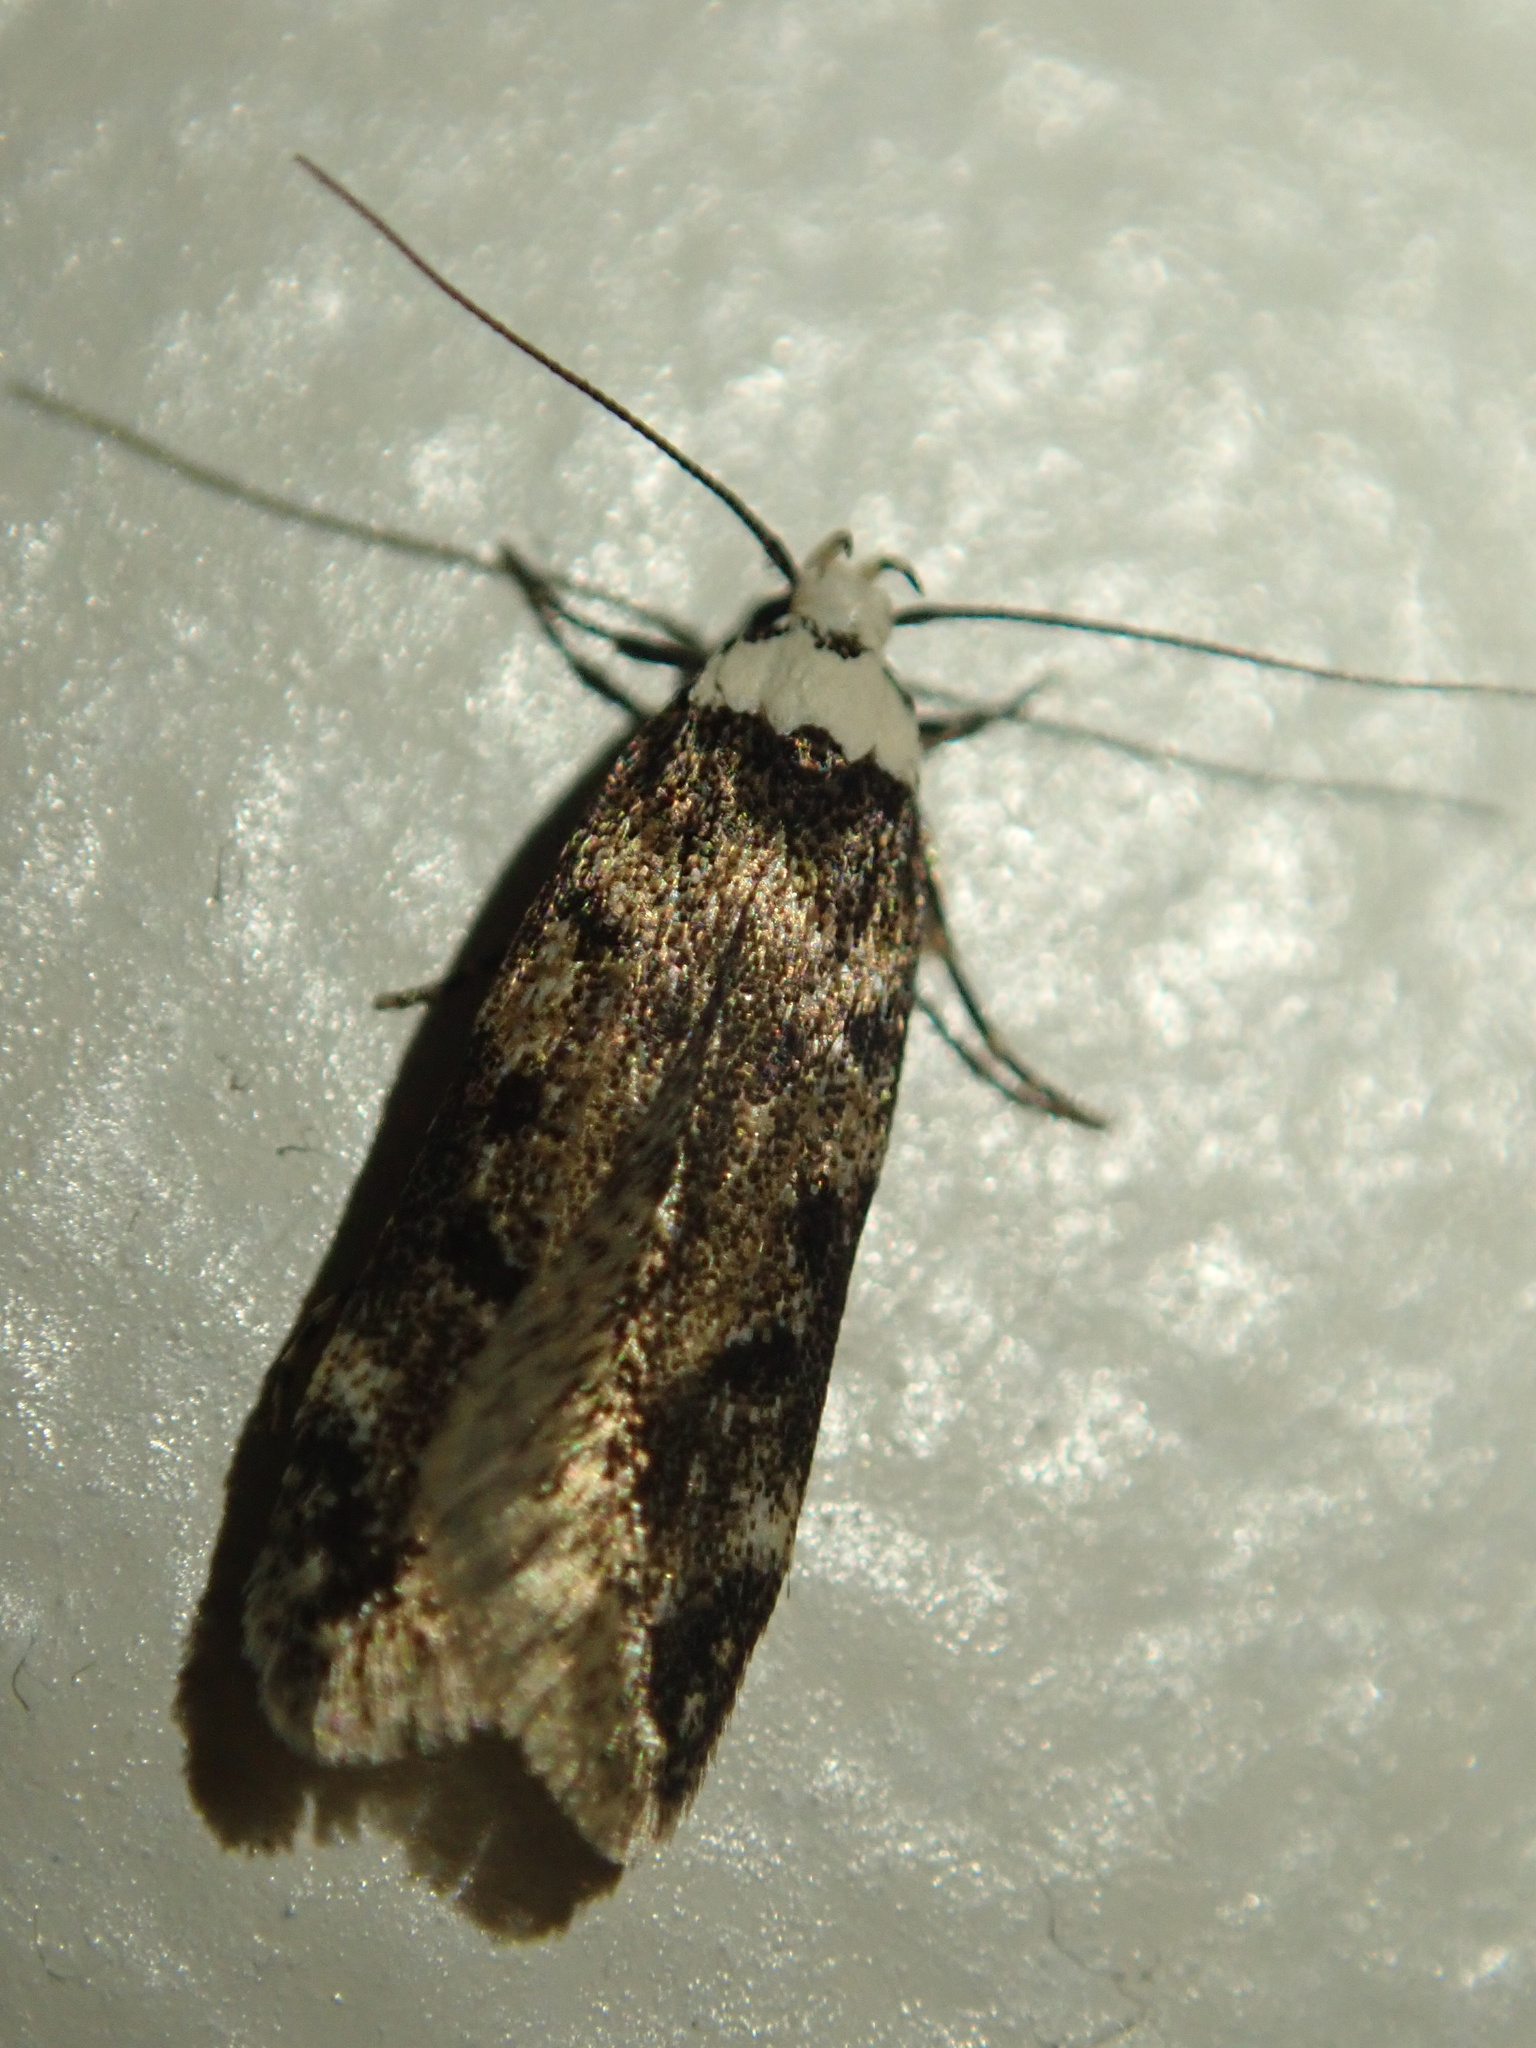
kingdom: Animalia
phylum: Arthropoda
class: Insecta
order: Lepidoptera
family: Oecophoridae
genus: Endrosis
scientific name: Endrosis sarcitrella
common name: White-shouldered house moth
